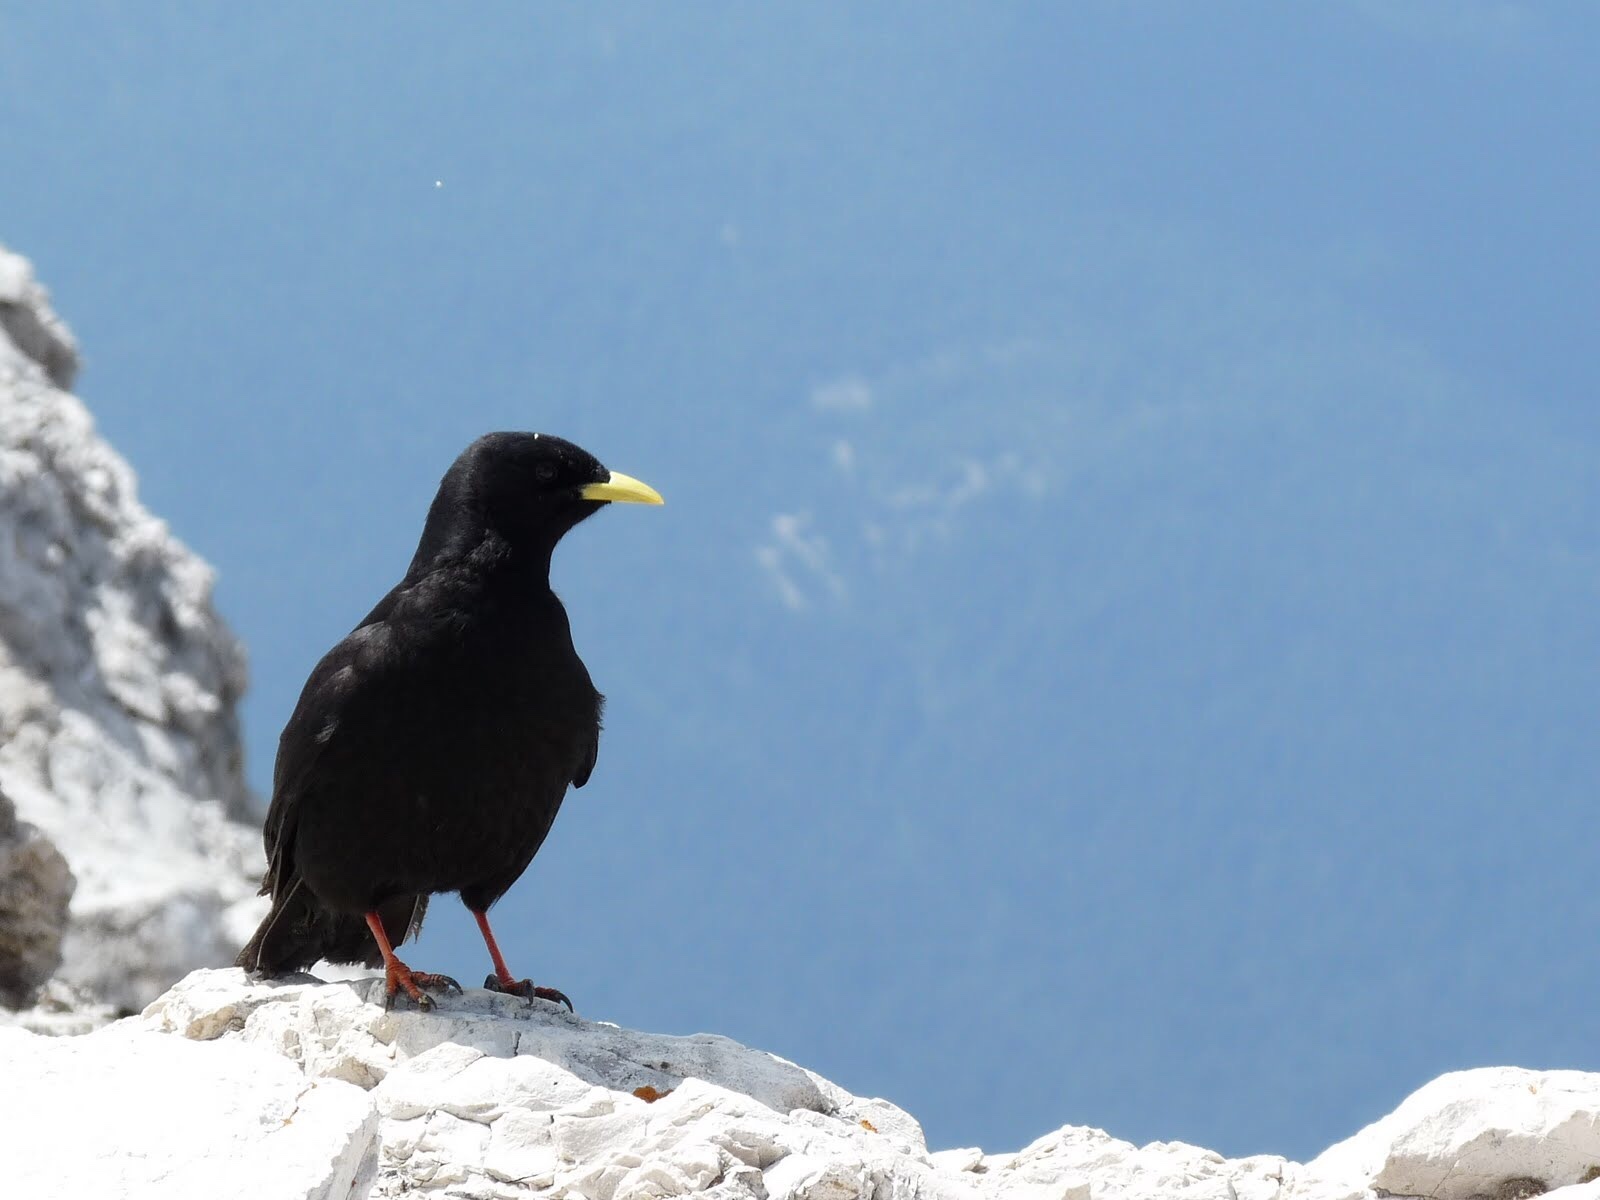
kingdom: Animalia
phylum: Chordata
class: Aves
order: Passeriformes
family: Corvidae
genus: Pyrrhocorax
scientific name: Pyrrhocorax graculus
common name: Alpine chough
